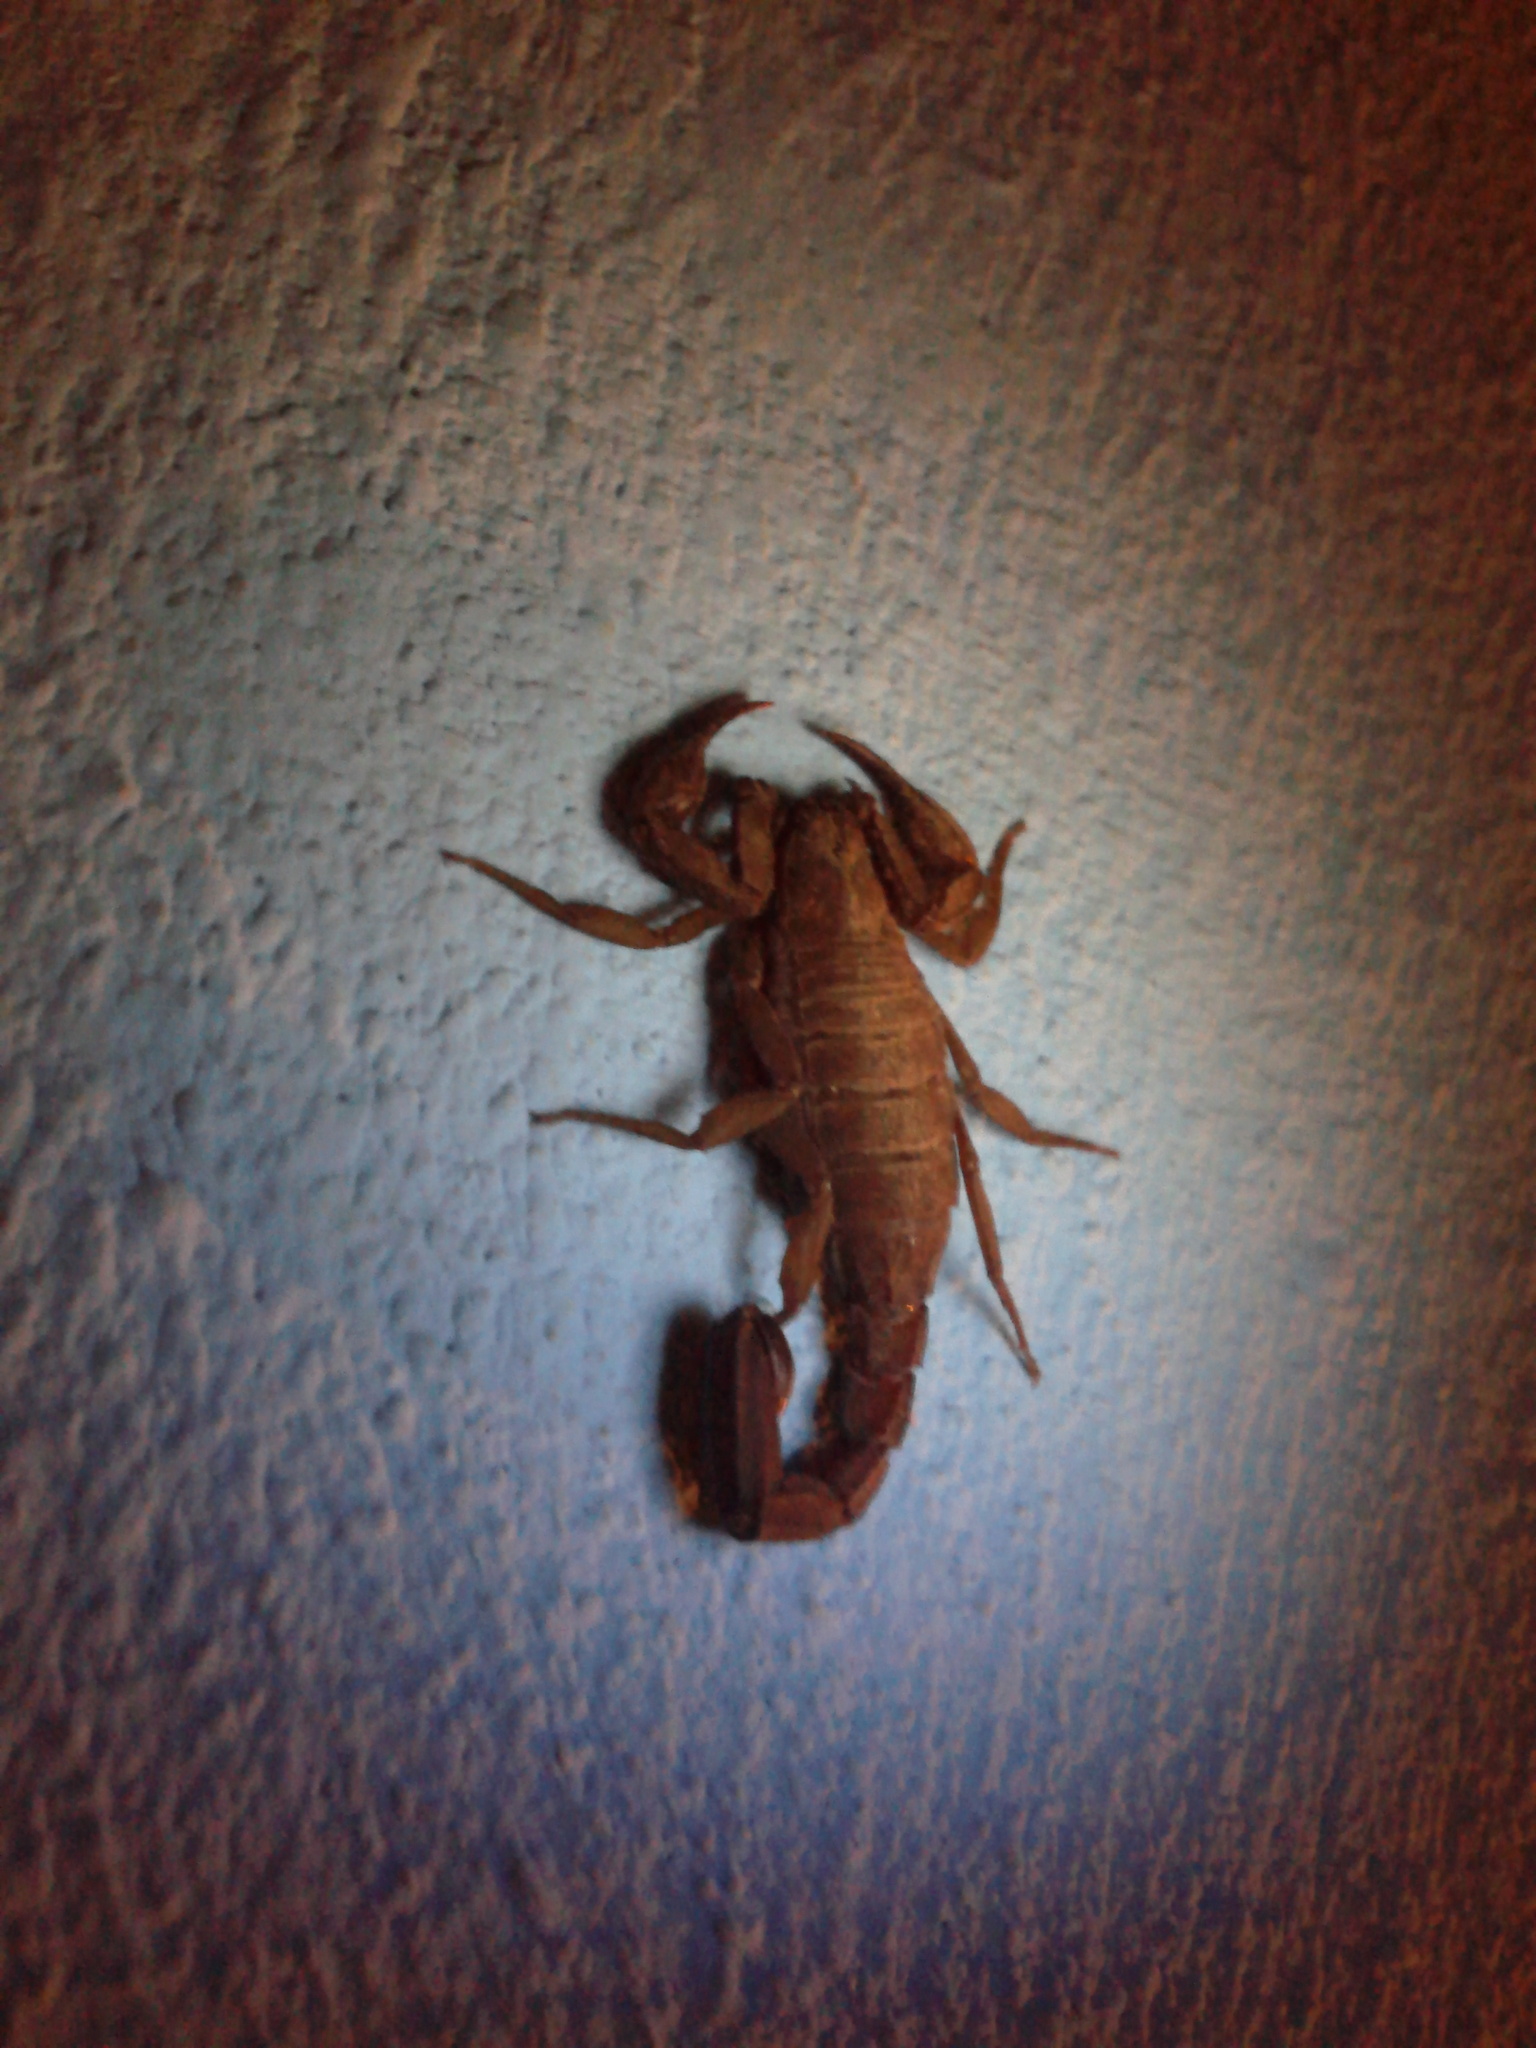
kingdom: Animalia
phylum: Arthropoda
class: Arachnida
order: Scorpiones
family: Vaejovidae
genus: Vaejovis
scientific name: Vaejovis mexicanus
